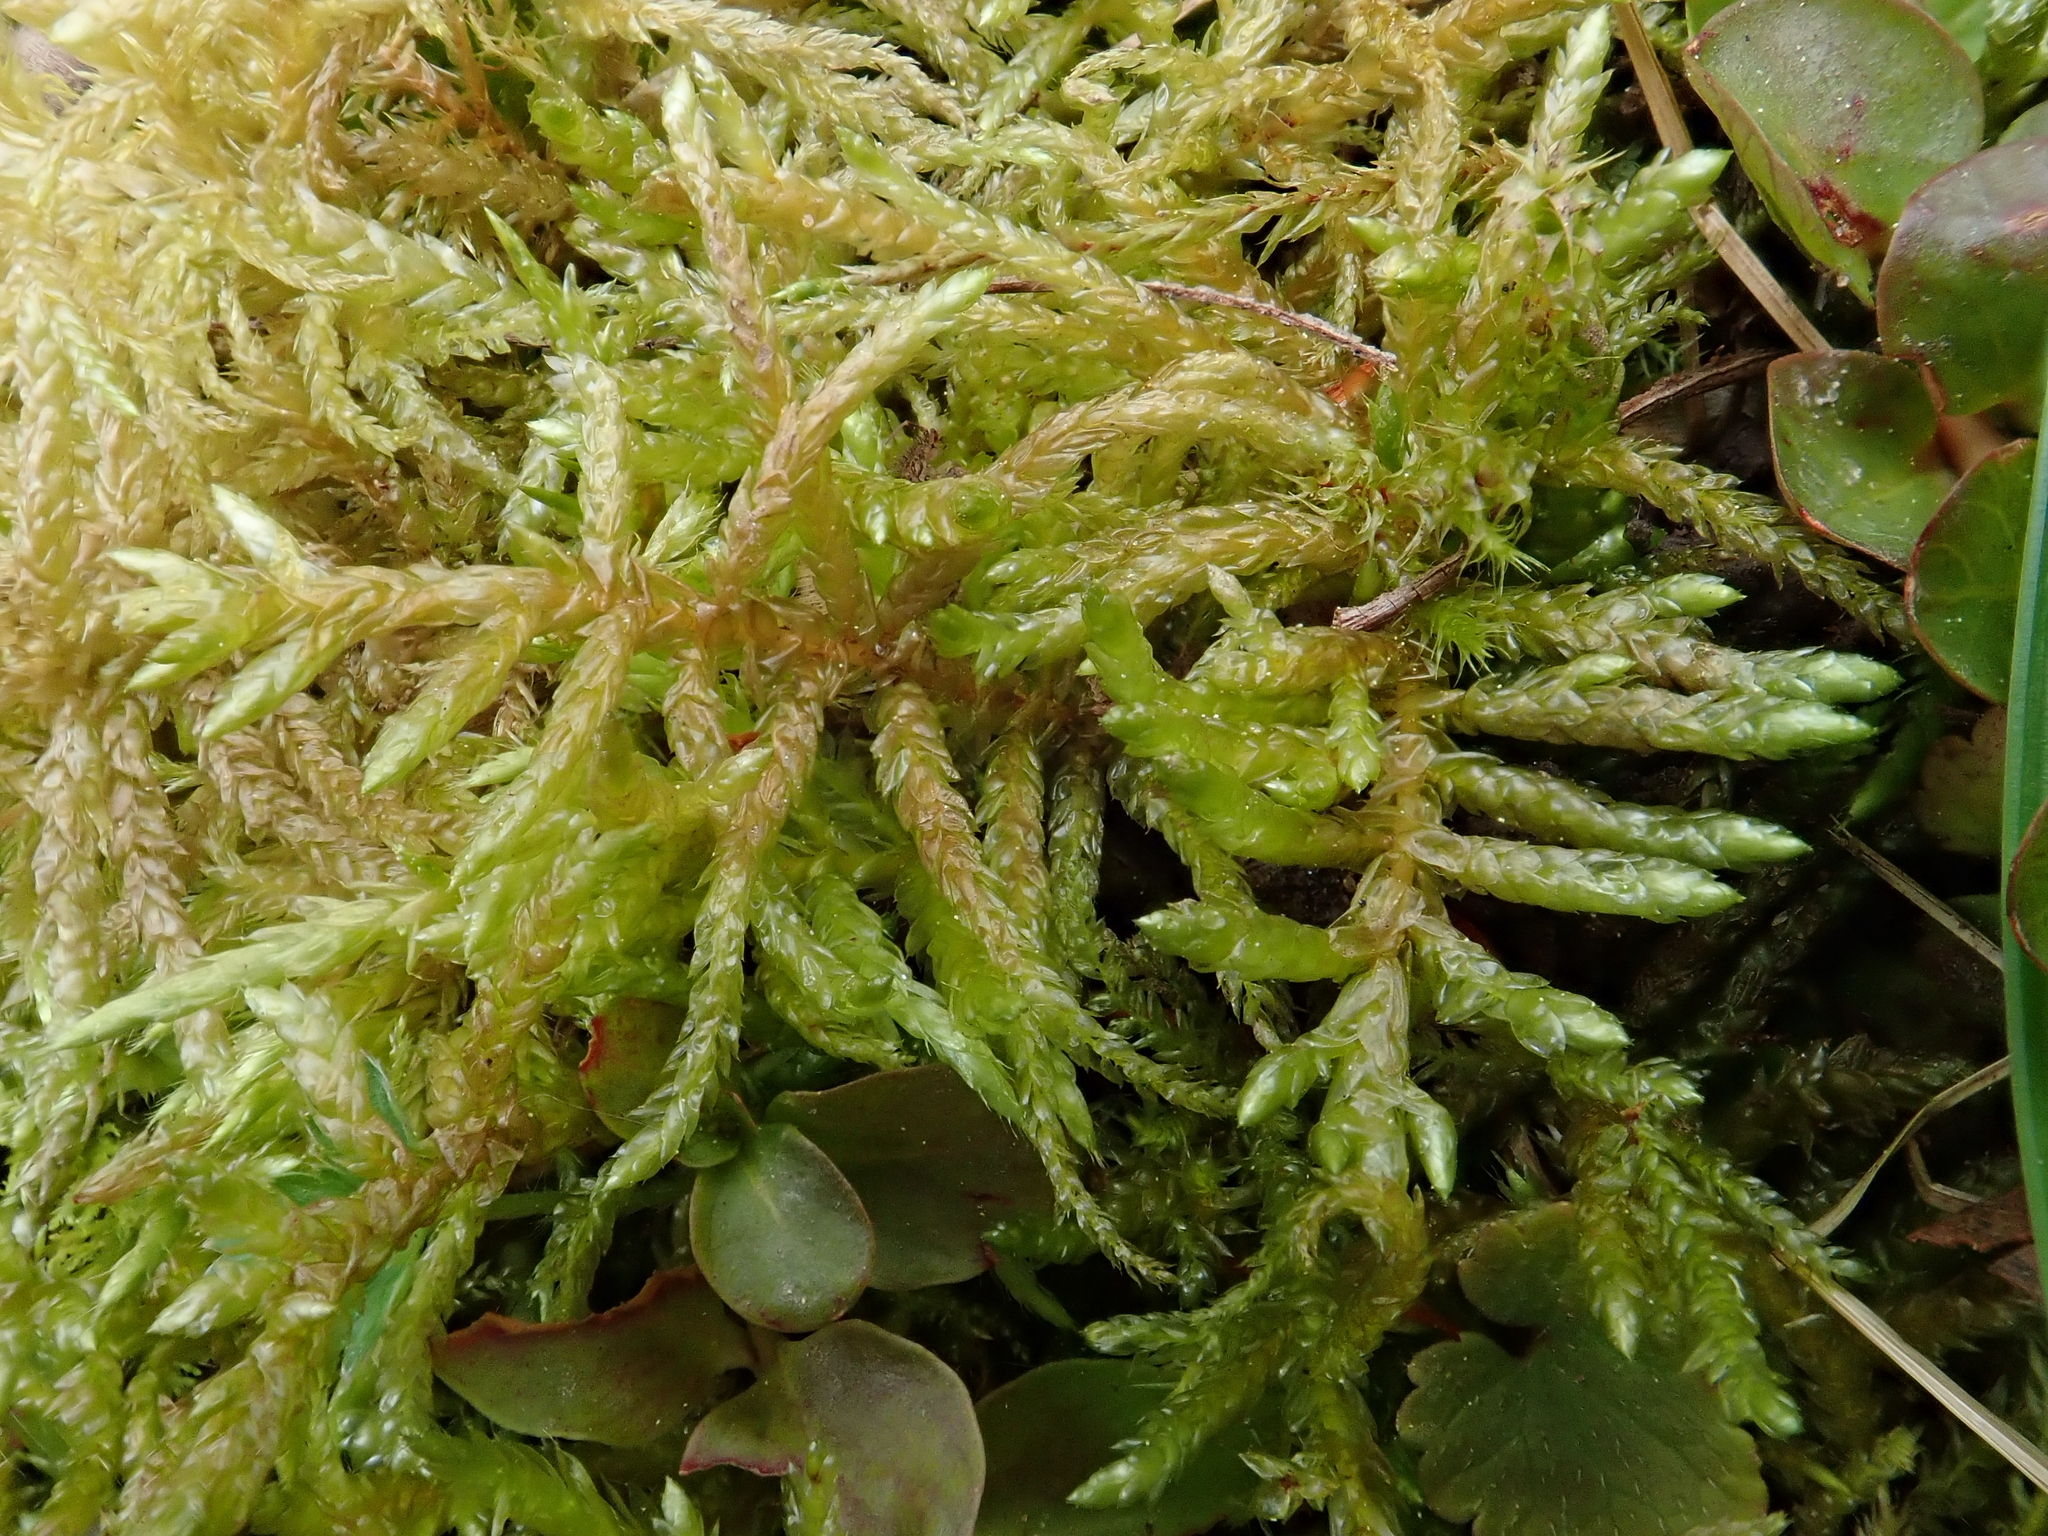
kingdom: Plantae
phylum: Bryophyta
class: Bryopsida
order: Hypnales
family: Brachytheciaceae
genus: Pseudoscleropodium
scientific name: Pseudoscleropodium purum
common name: Neat feather-moss
